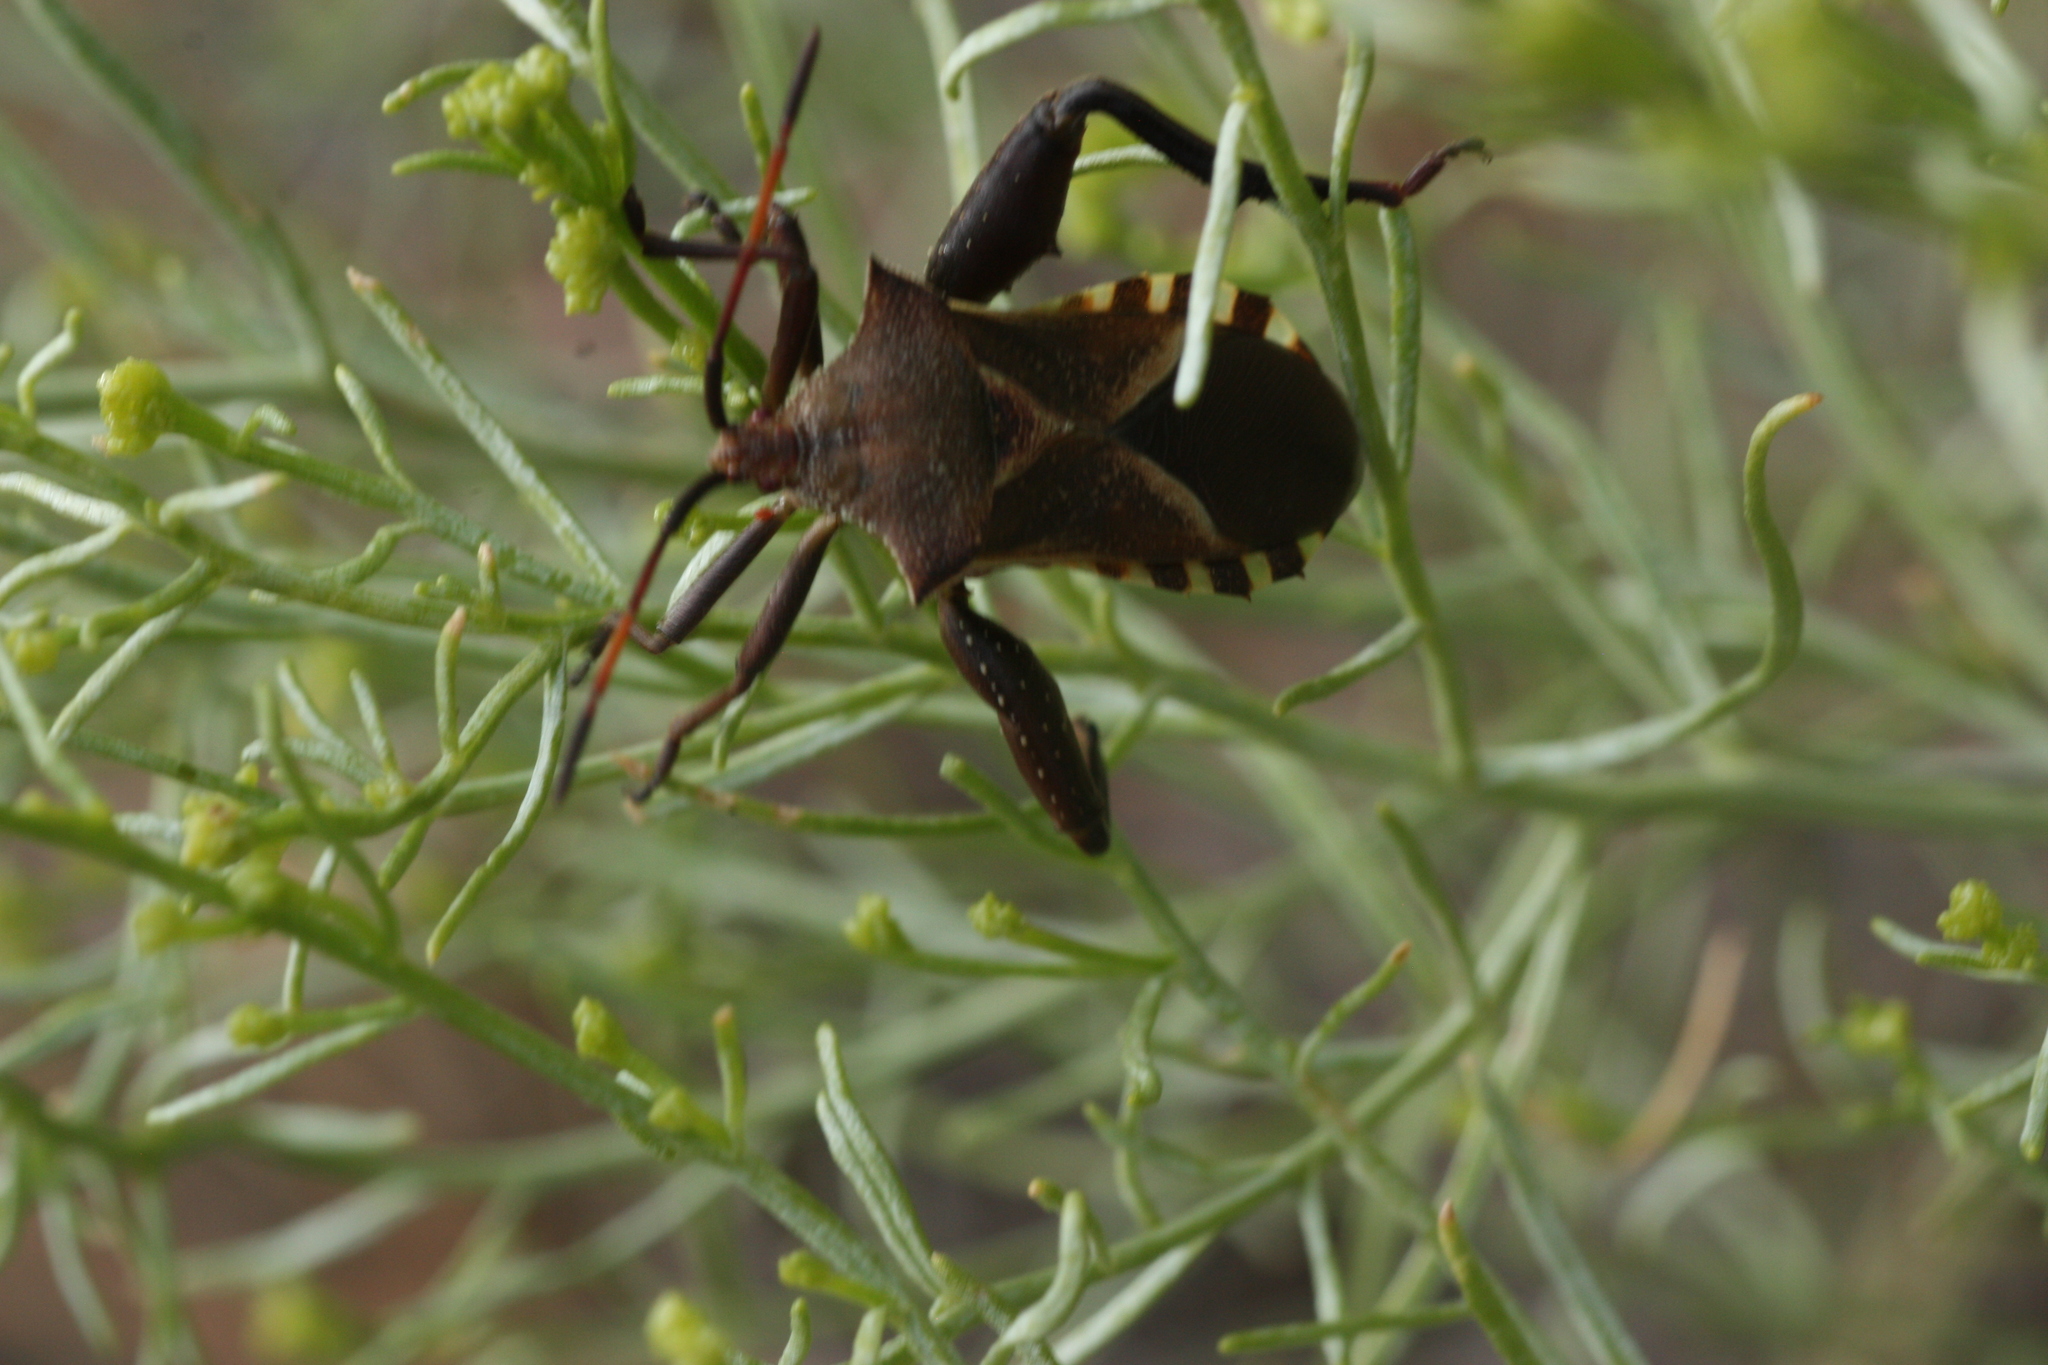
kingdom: Animalia
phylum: Arthropoda
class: Insecta
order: Hemiptera
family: Coreidae
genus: Mozena
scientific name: Mozena obtusa
